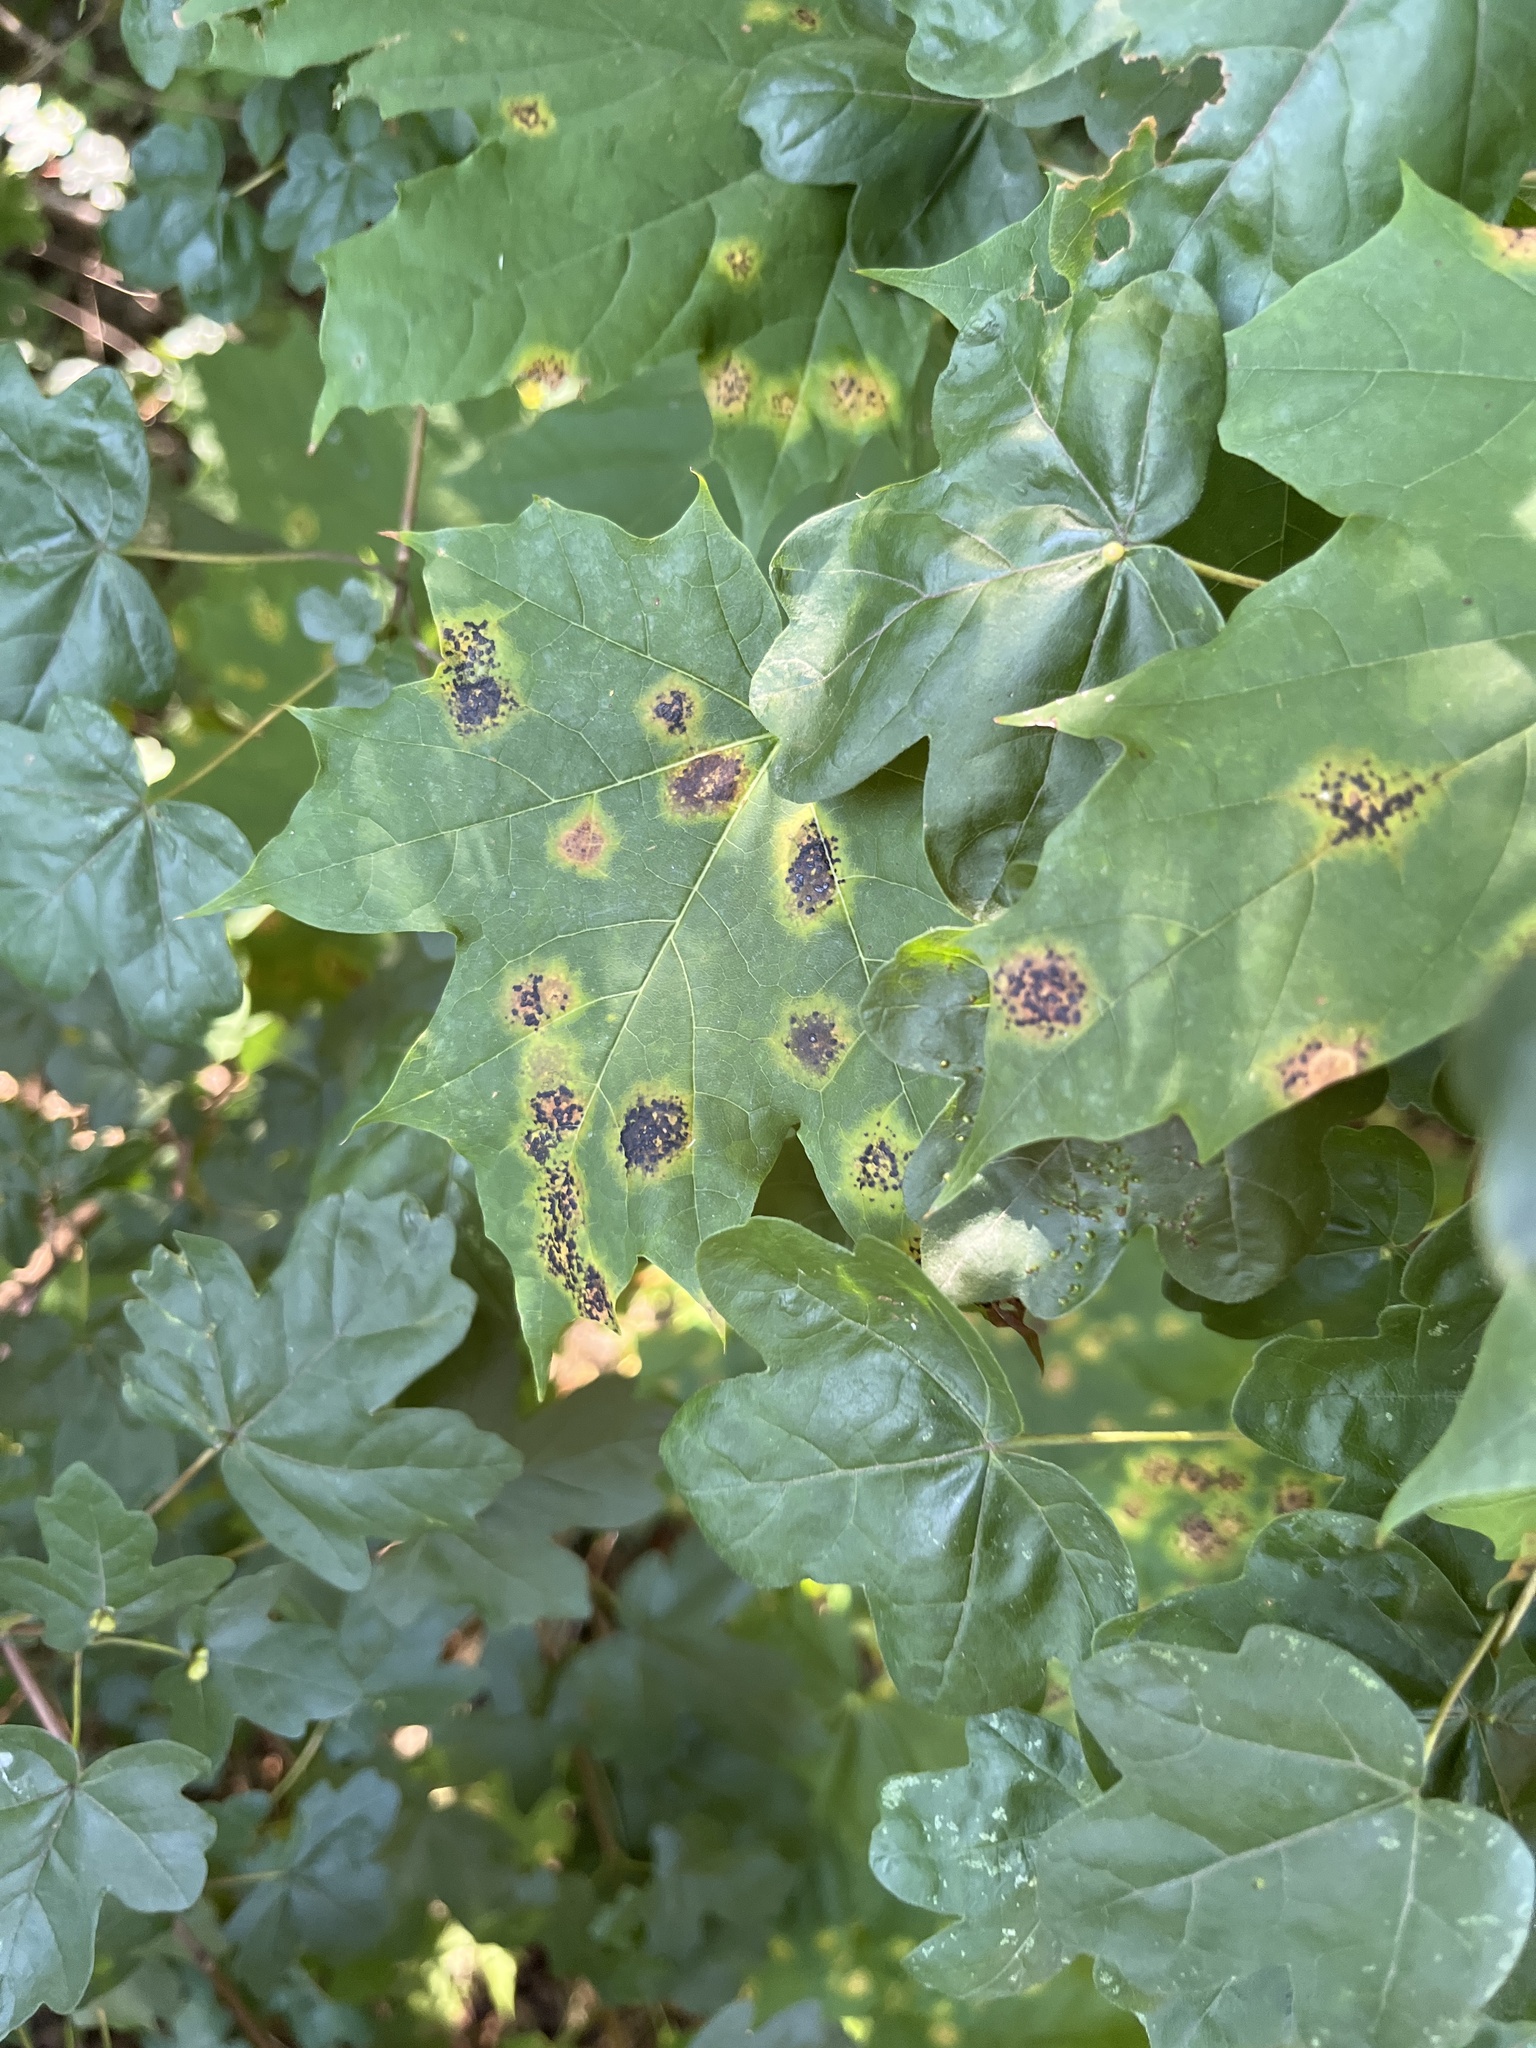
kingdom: Fungi
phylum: Ascomycota
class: Leotiomycetes
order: Rhytismatales
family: Rhytismataceae
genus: Rhytisma
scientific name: Rhytisma acerinum
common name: European tar spot
